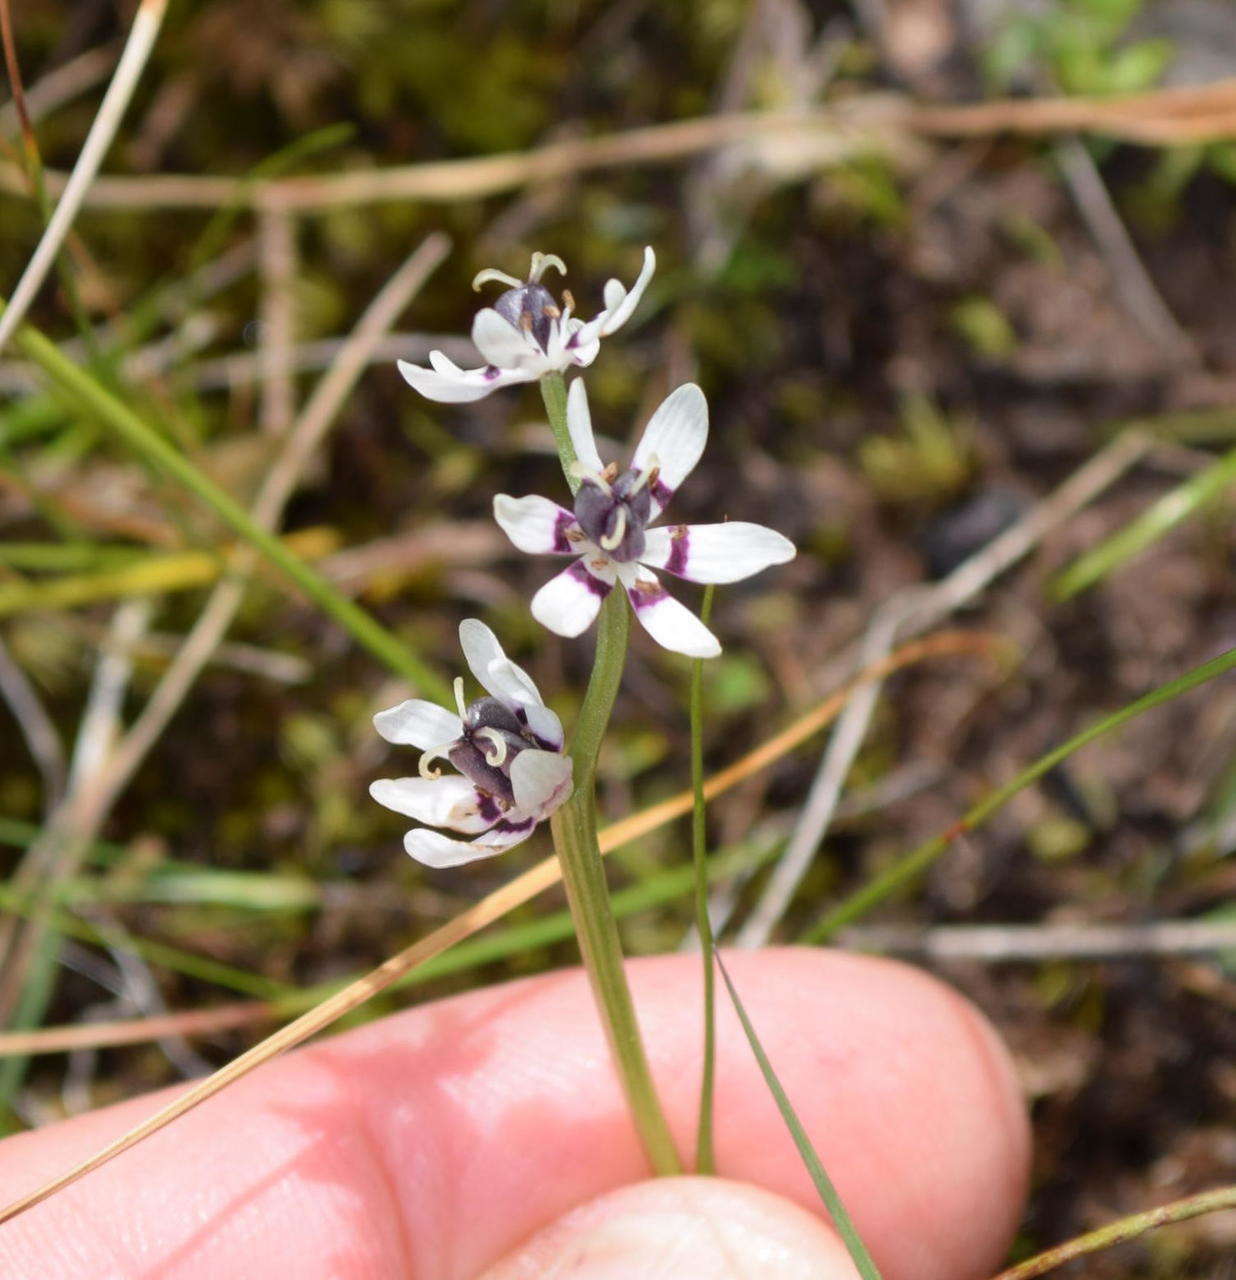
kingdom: Plantae
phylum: Tracheophyta
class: Liliopsida
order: Liliales
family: Colchicaceae
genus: Wurmbea
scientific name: Wurmbea dioica
